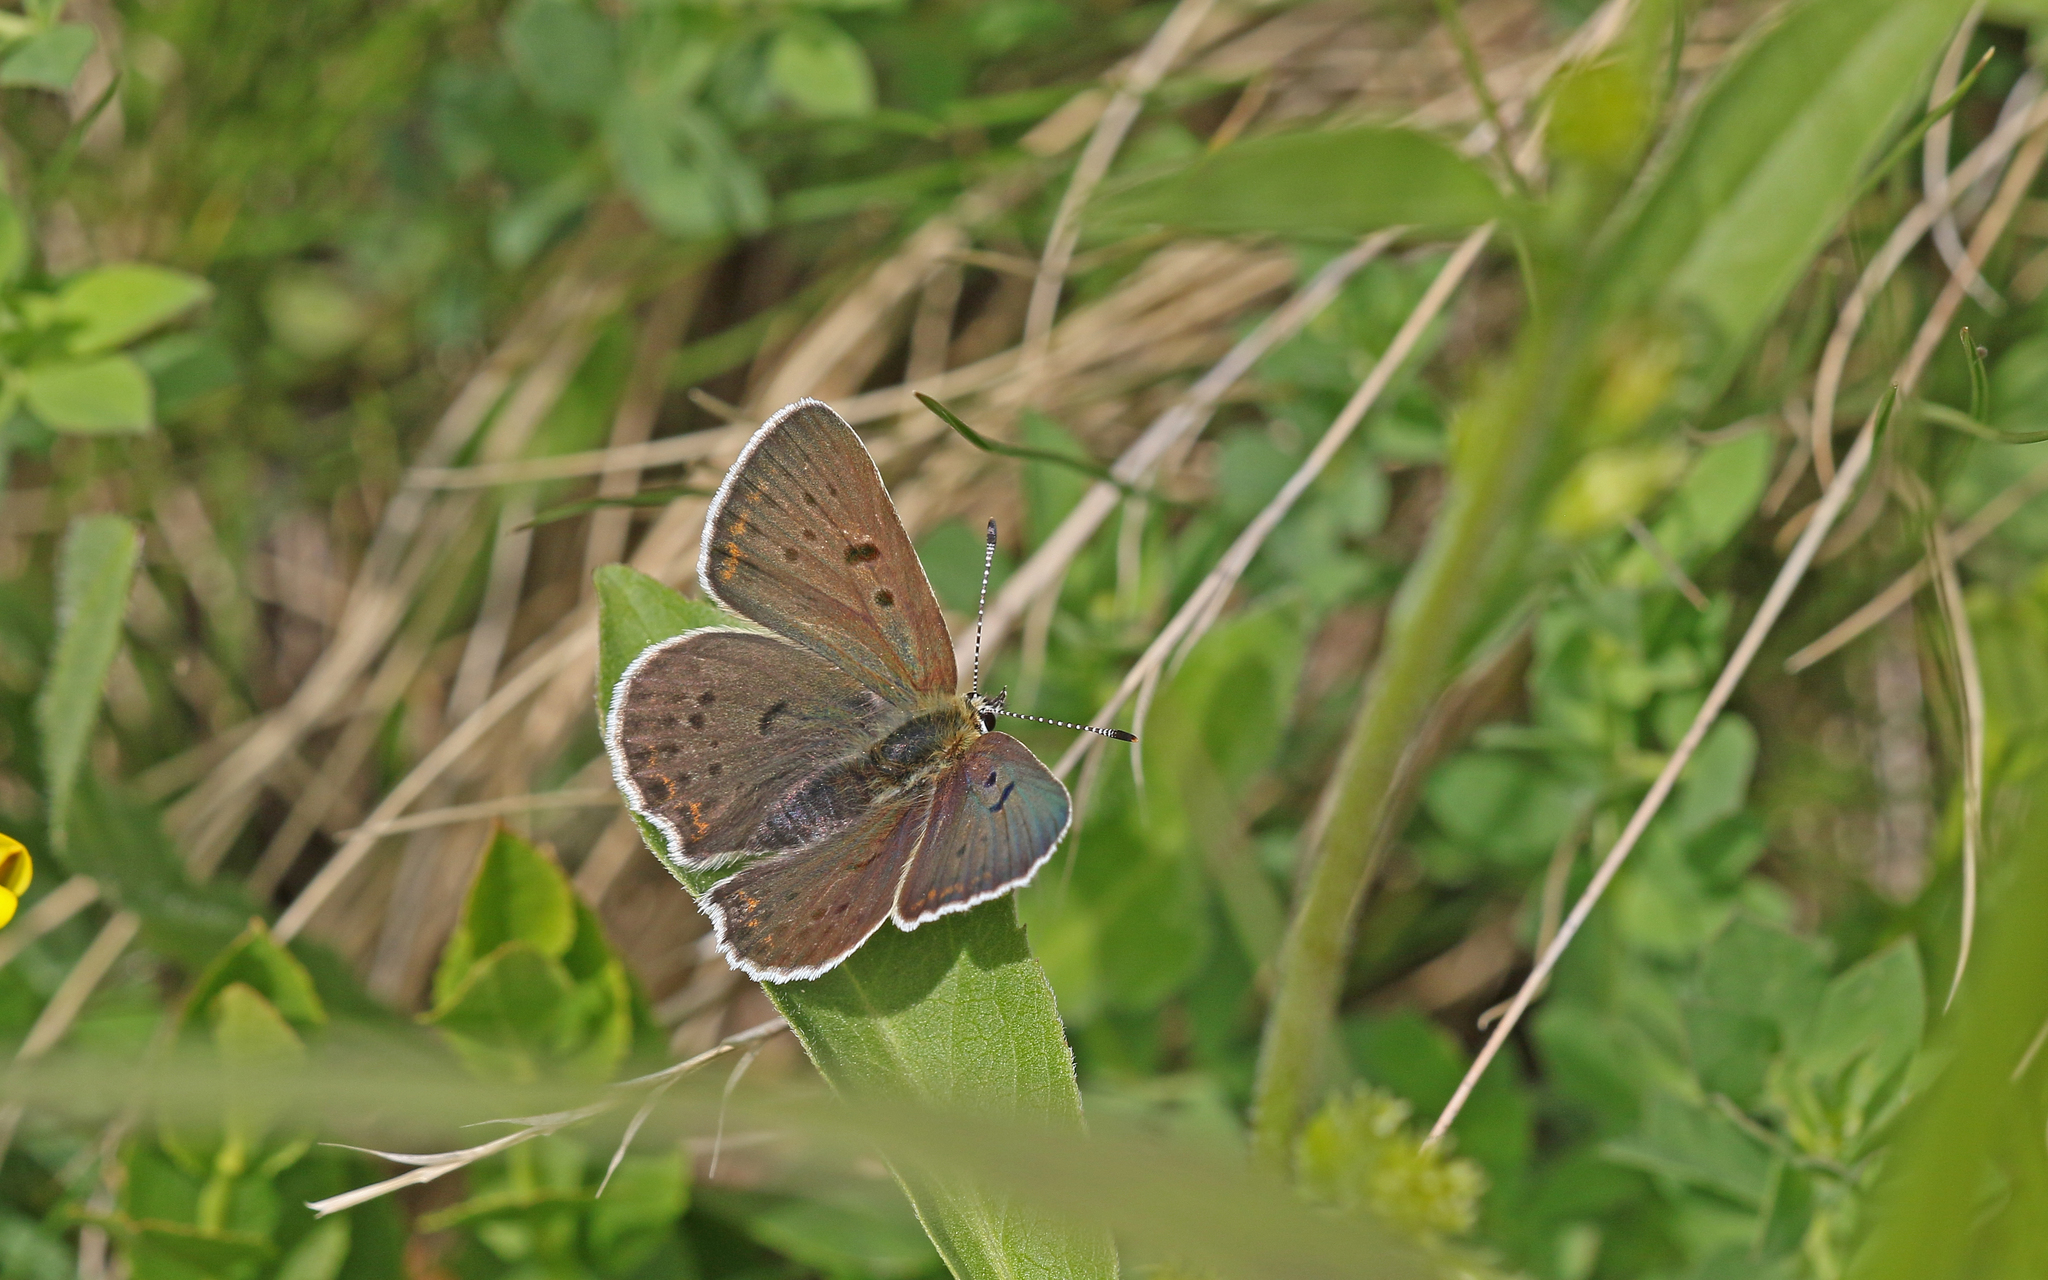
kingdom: Animalia
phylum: Arthropoda
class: Insecta
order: Lepidoptera
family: Lycaenidae
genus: Loweia
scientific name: Loweia tityrus
